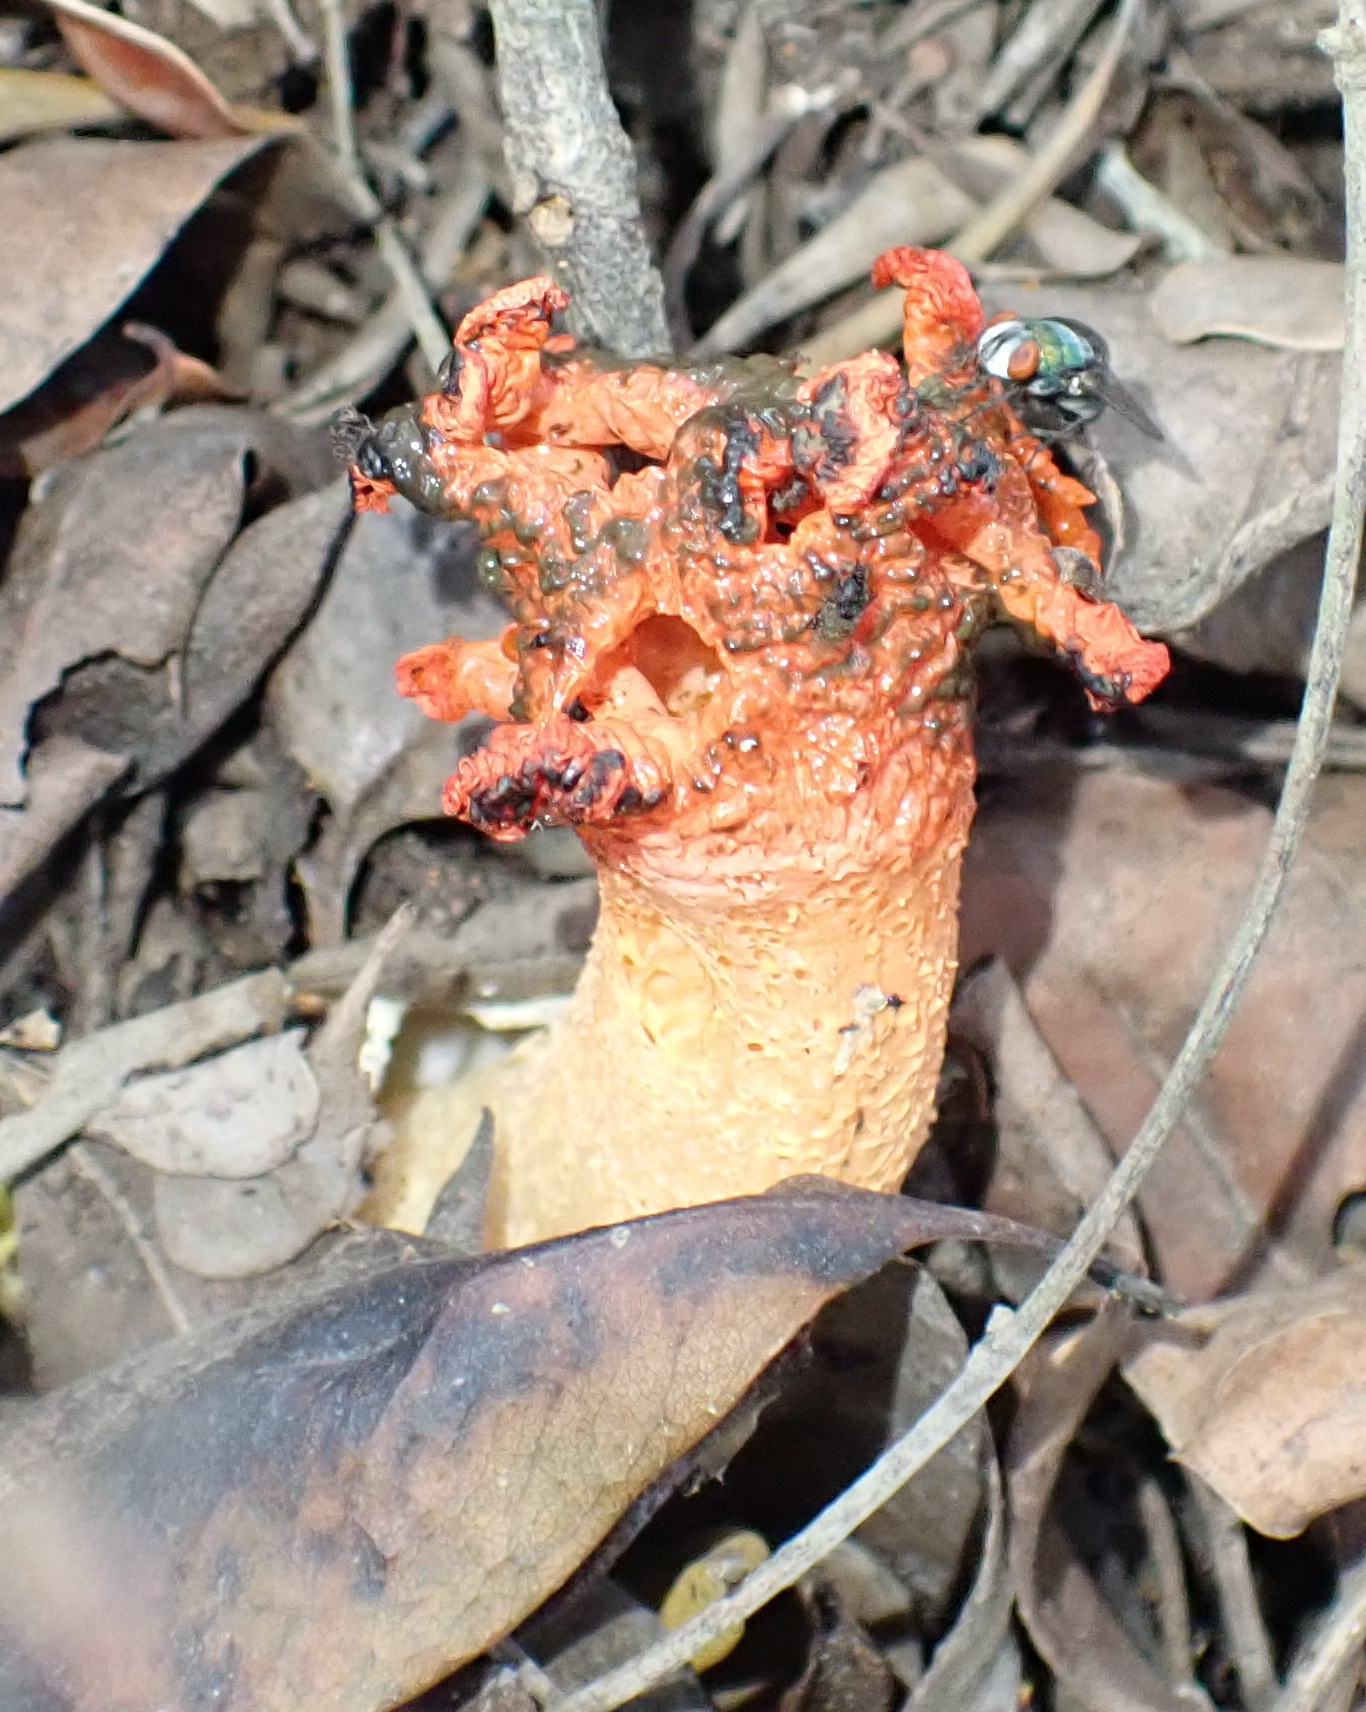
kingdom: Fungi
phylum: Basidiomycota
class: Agaricomycetes
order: Phallales
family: Phallaceae
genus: Lysurus
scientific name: Lysurus corallocephalus
